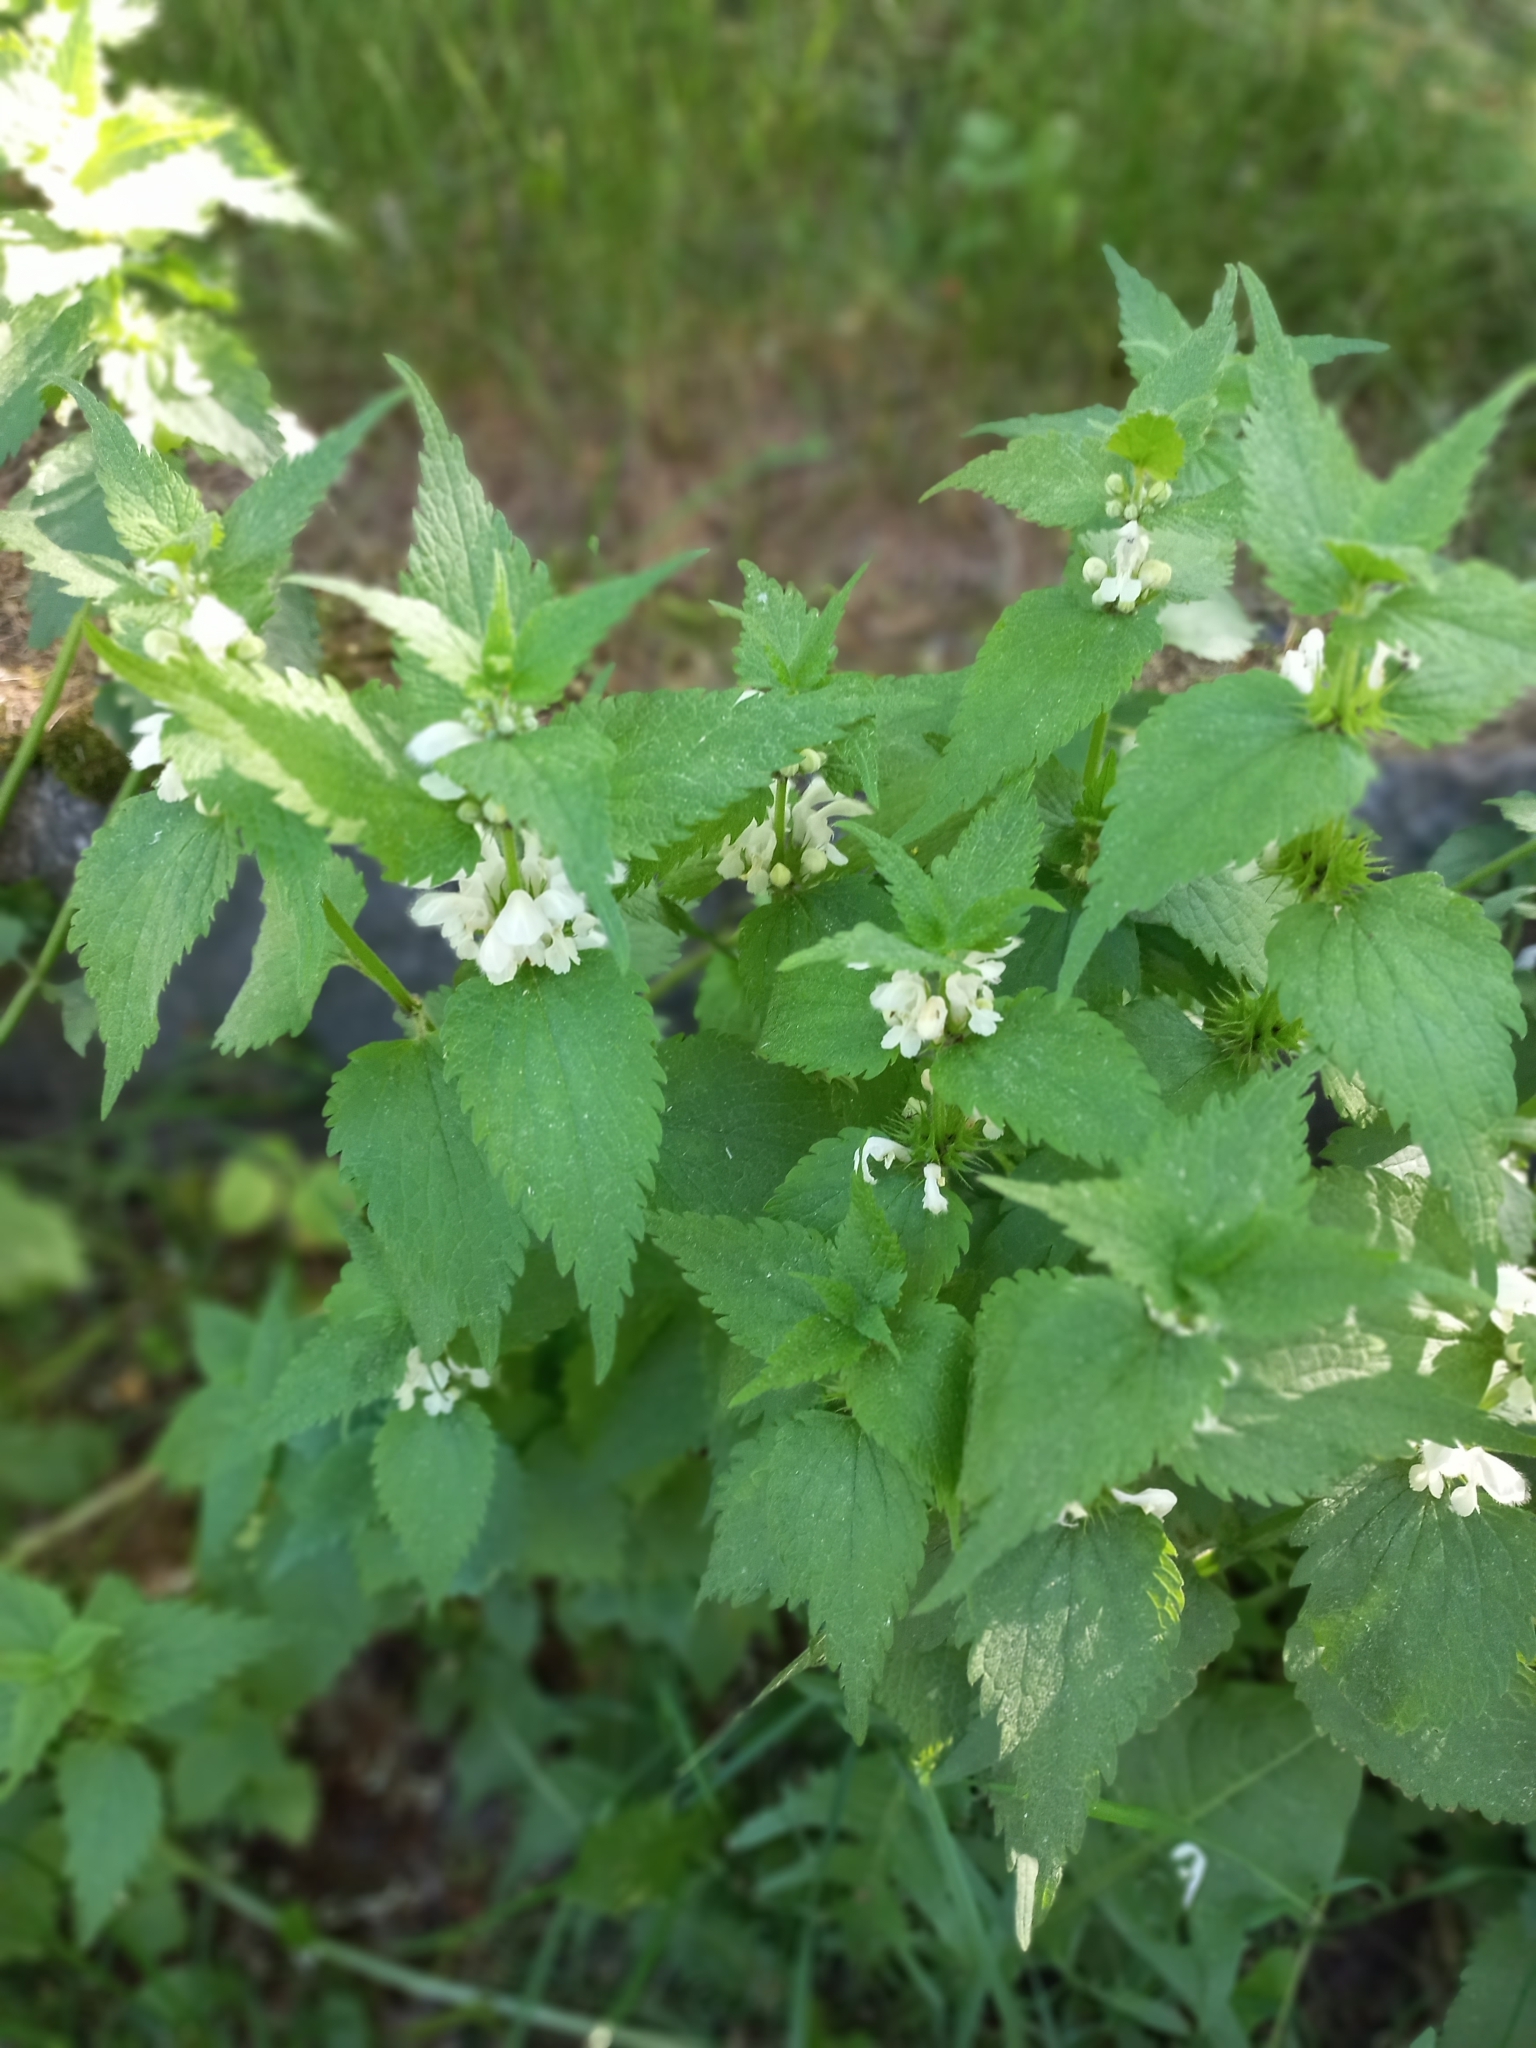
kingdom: Plantae
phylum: Tracheophyta
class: Magnoliopsida
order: Lamiales
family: Lamiaceae
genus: Lamium
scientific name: Lamium album
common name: White dead-nettle
